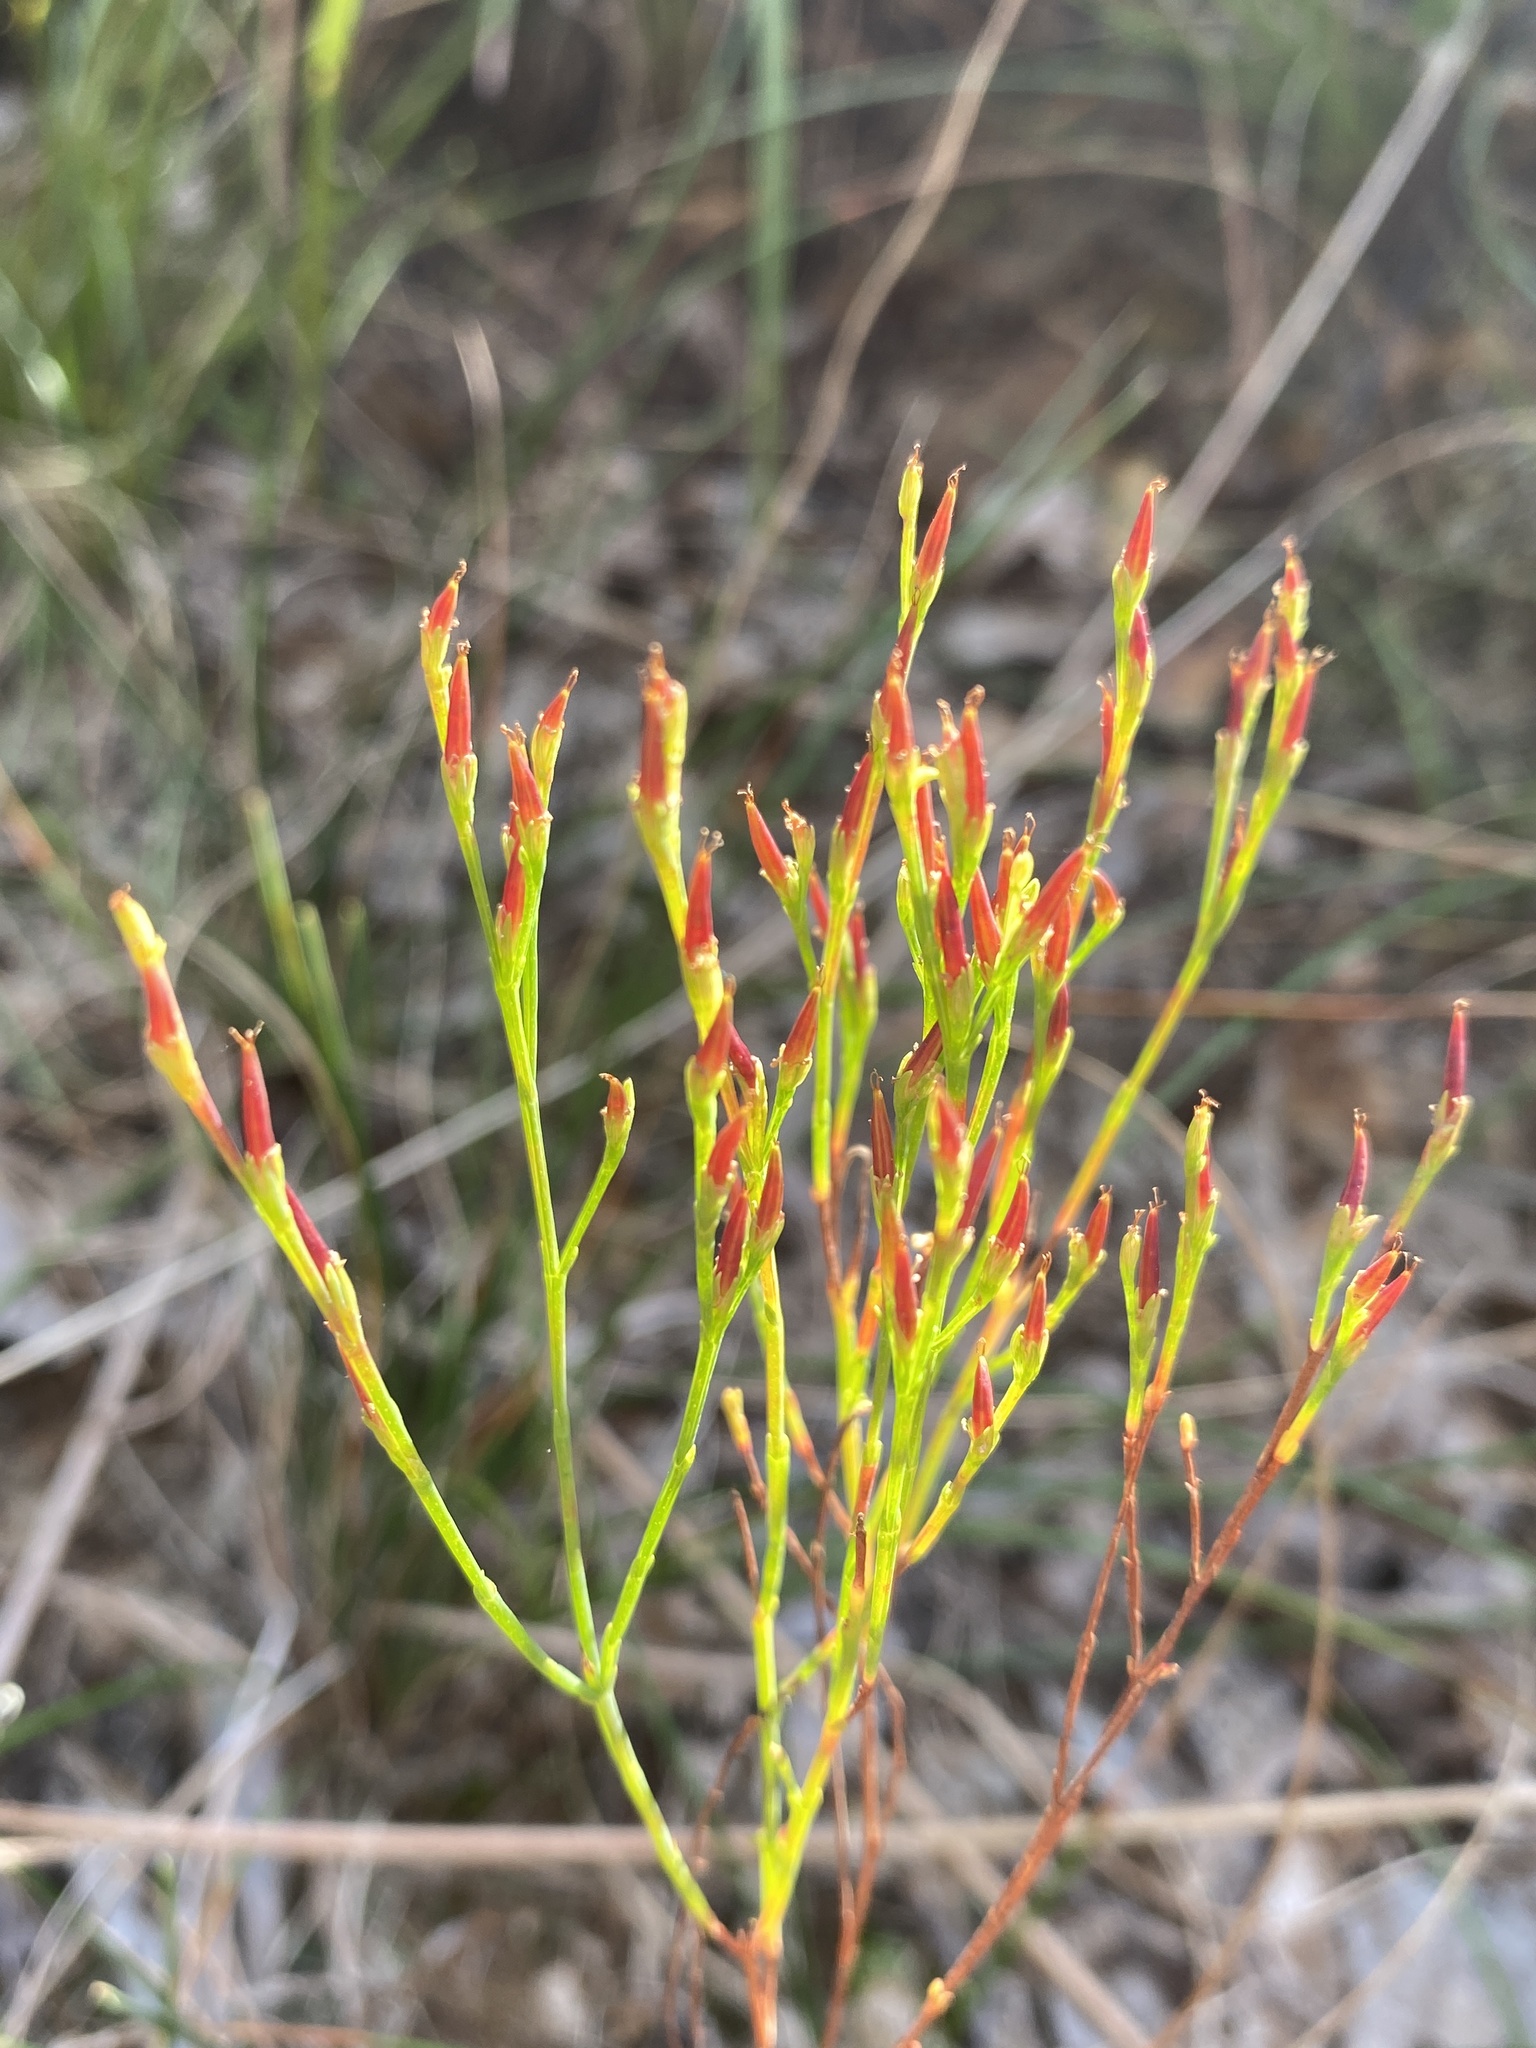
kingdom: Plantae
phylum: Tracheophyta
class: Magnoliopsida
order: Malpighiales
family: Hypericaceae
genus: Hypericum
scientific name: Hypericum gentianoides
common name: Gentian-leaved st. john's-wort
